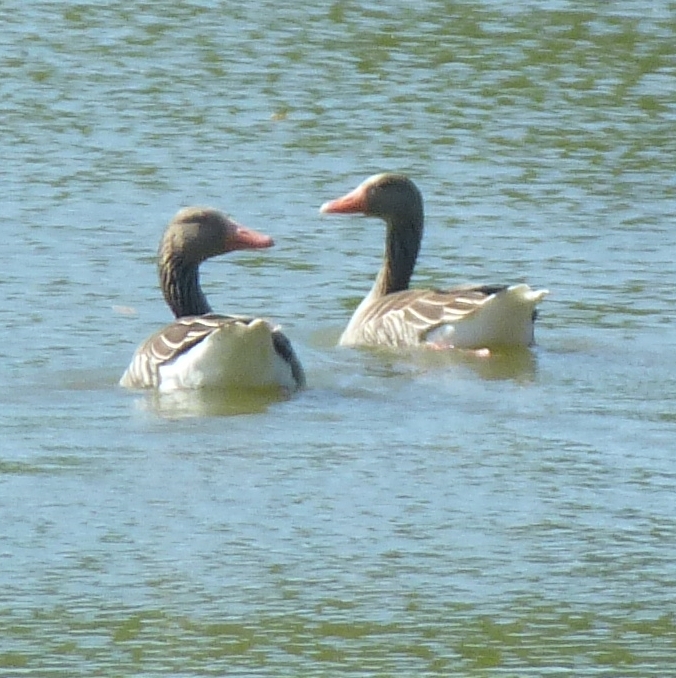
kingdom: Animalia
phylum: Chordata
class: Aves
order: Anseriformes
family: Anatidae
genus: Anser
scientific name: Anser anser
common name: Greylag goose
